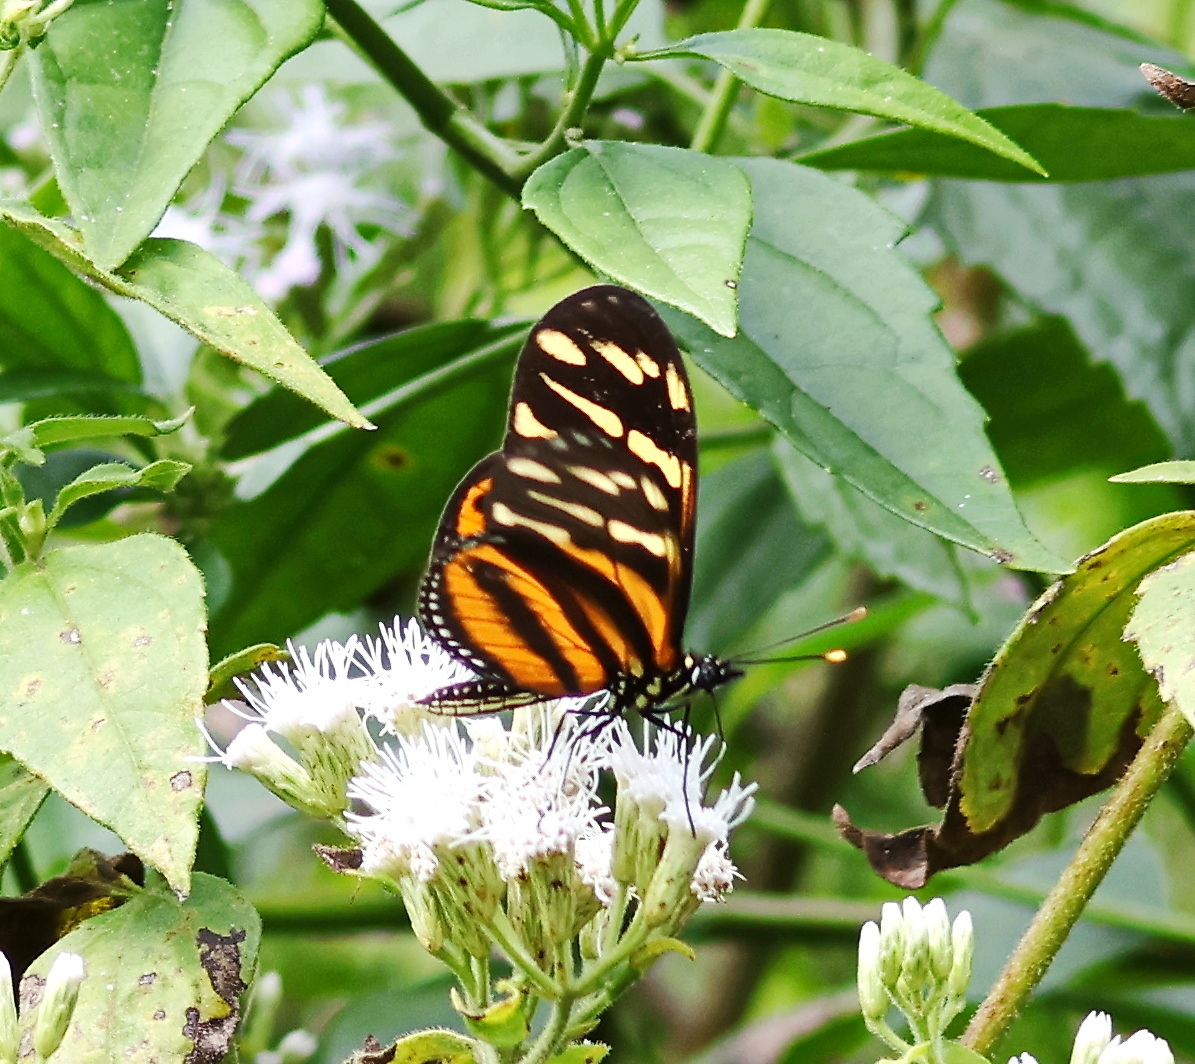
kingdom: Animalia
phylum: Arthropoda
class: Insecta
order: Lepidoptera
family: Nymphalidae
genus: Eueides
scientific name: Eueides isabella
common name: Isabella's longwing
